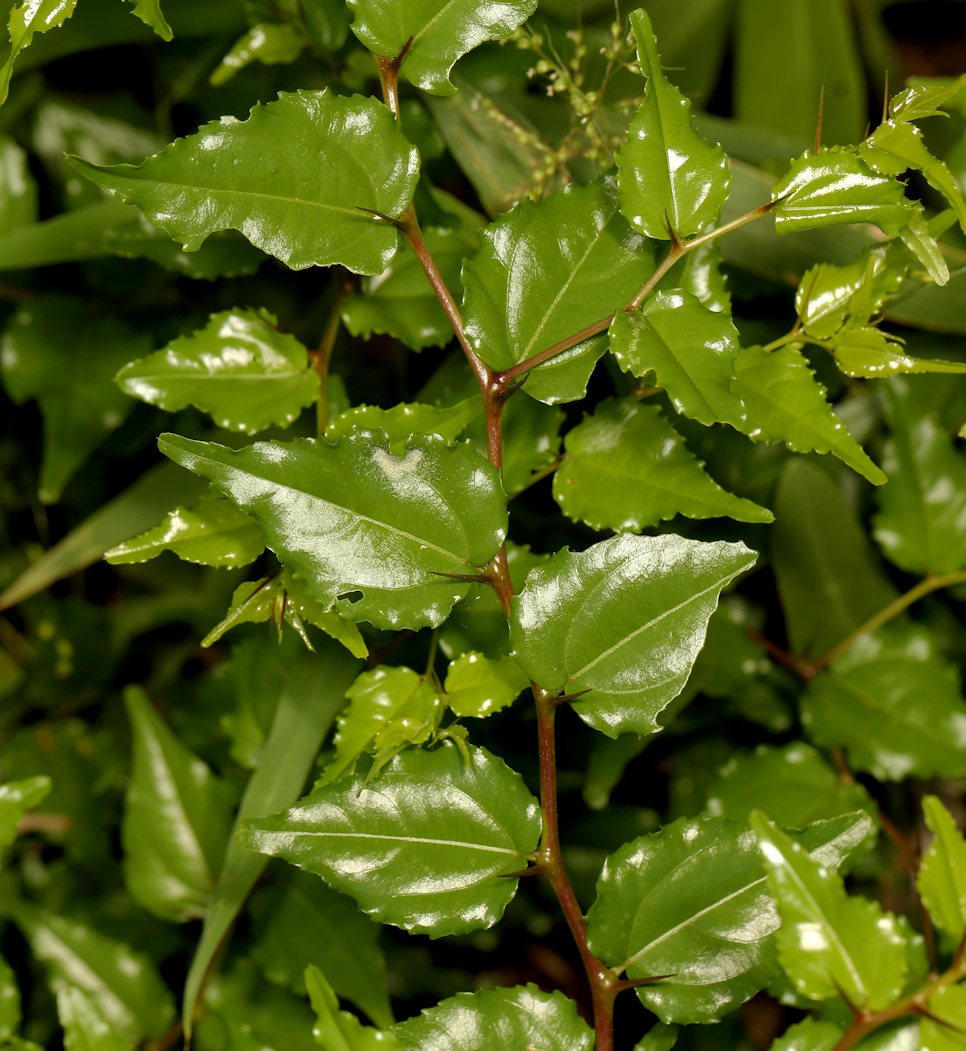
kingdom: Plantae
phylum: Tracheophyta
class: Magnoliopsida
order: Rosales
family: Rhamnaceae
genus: Ziziphus
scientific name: Ziziphus mucronata
